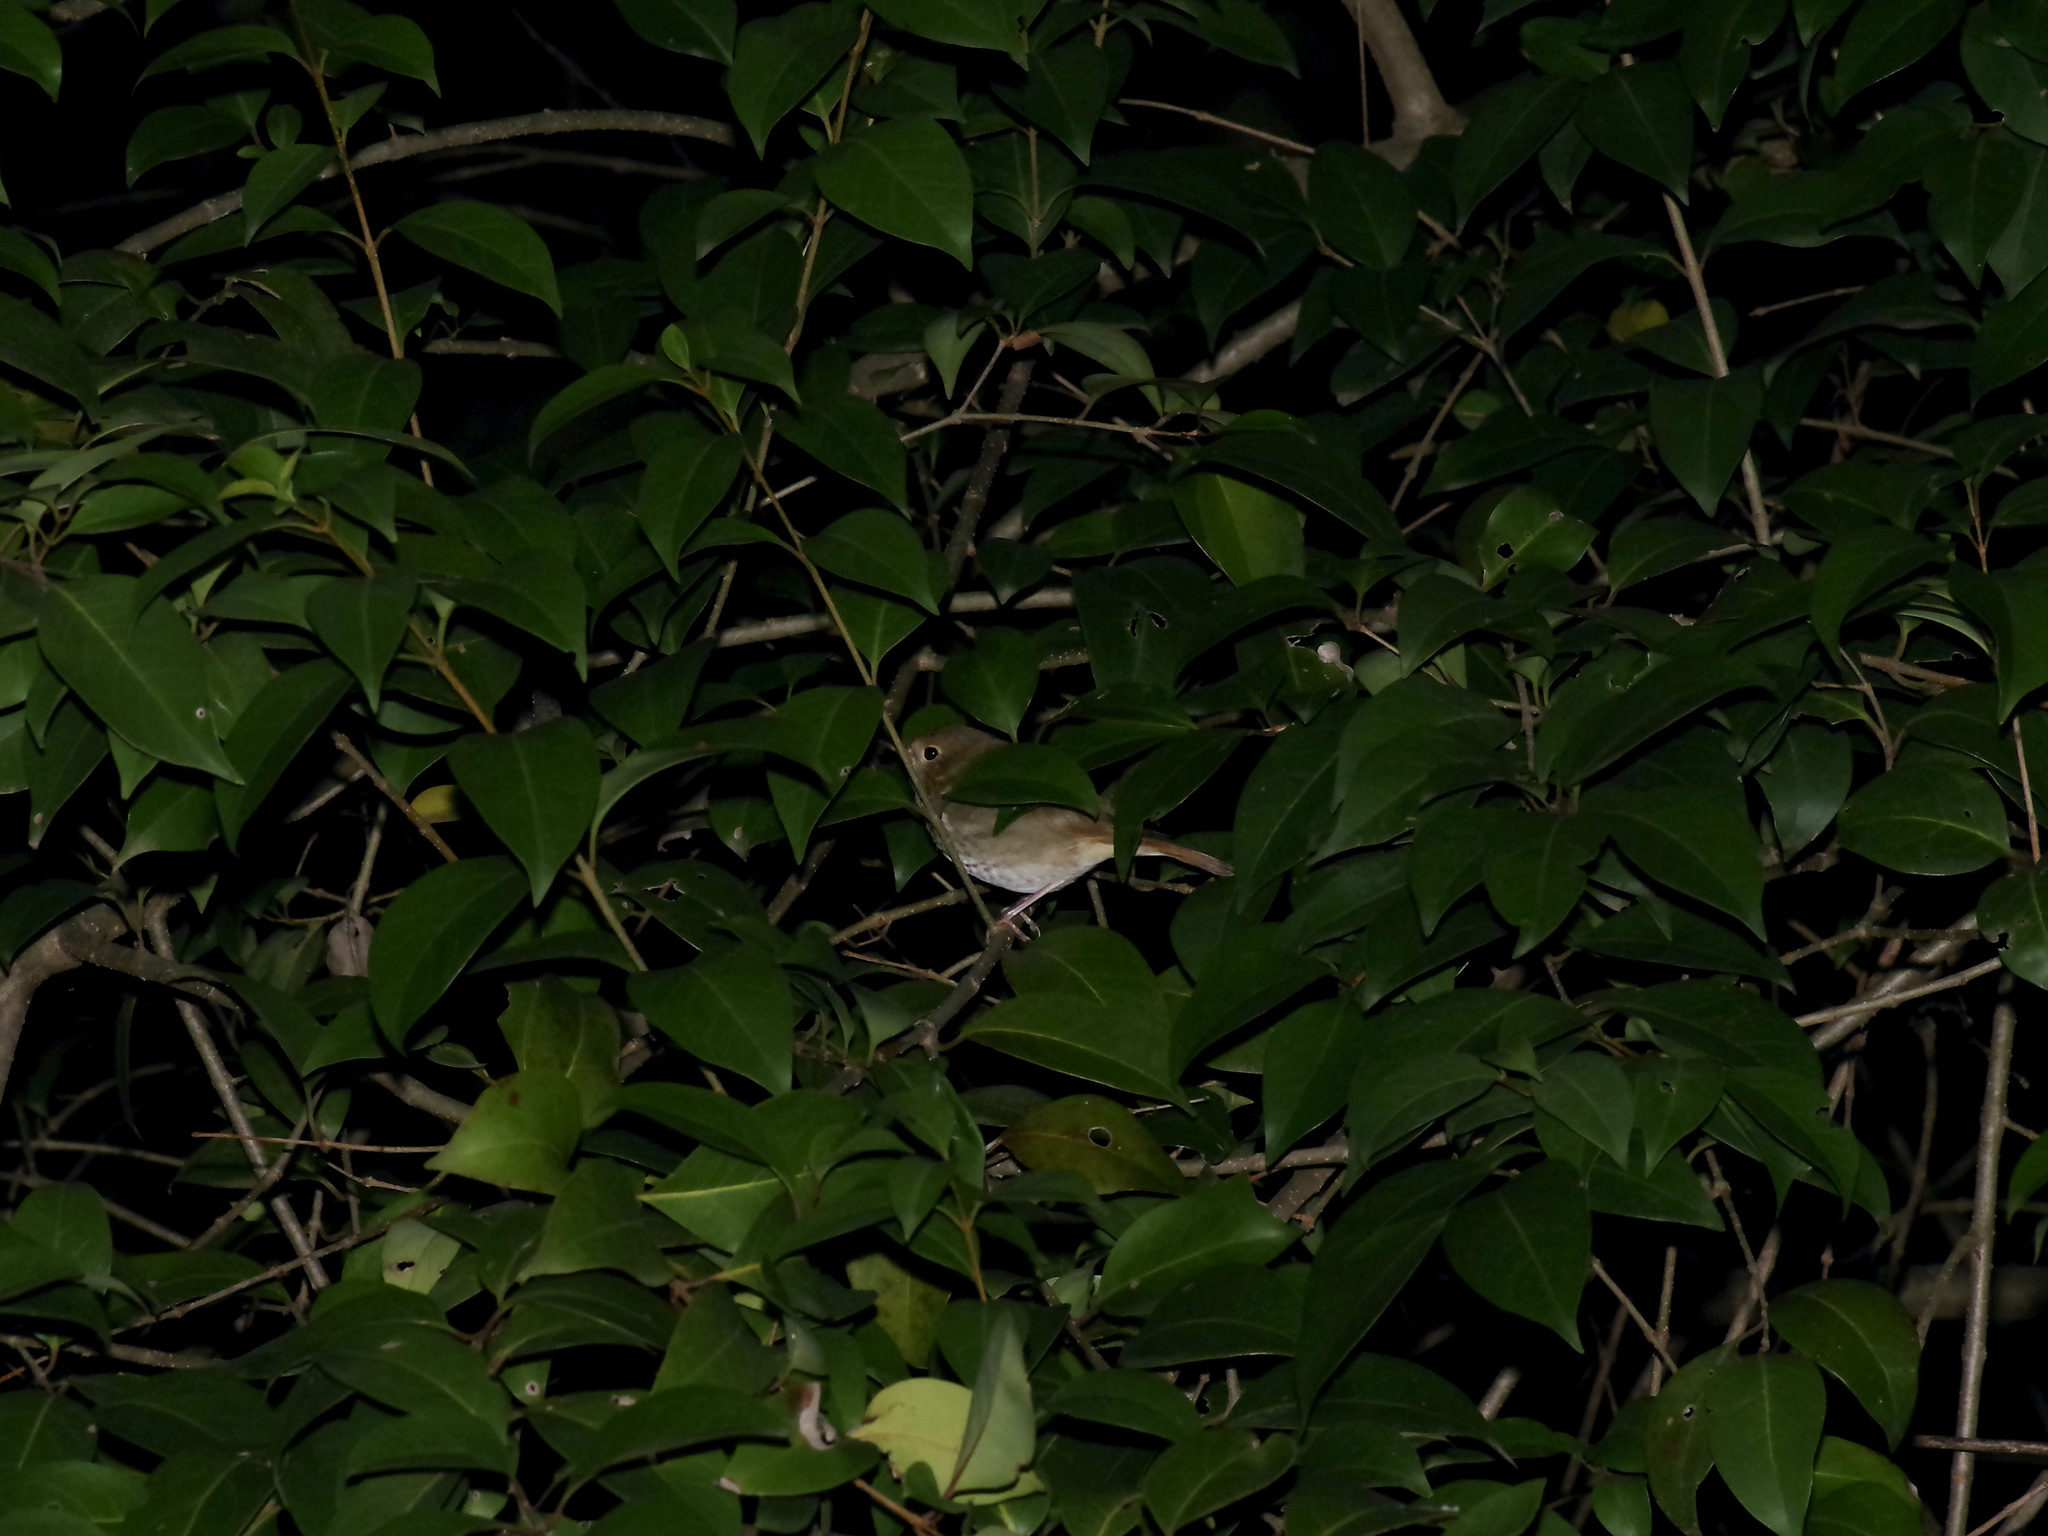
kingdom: Animalia
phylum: Chordata
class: Aves
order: Passeriformes
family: Turdidae
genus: Catharus
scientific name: Catharus guttatus
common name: Hermit thrush
